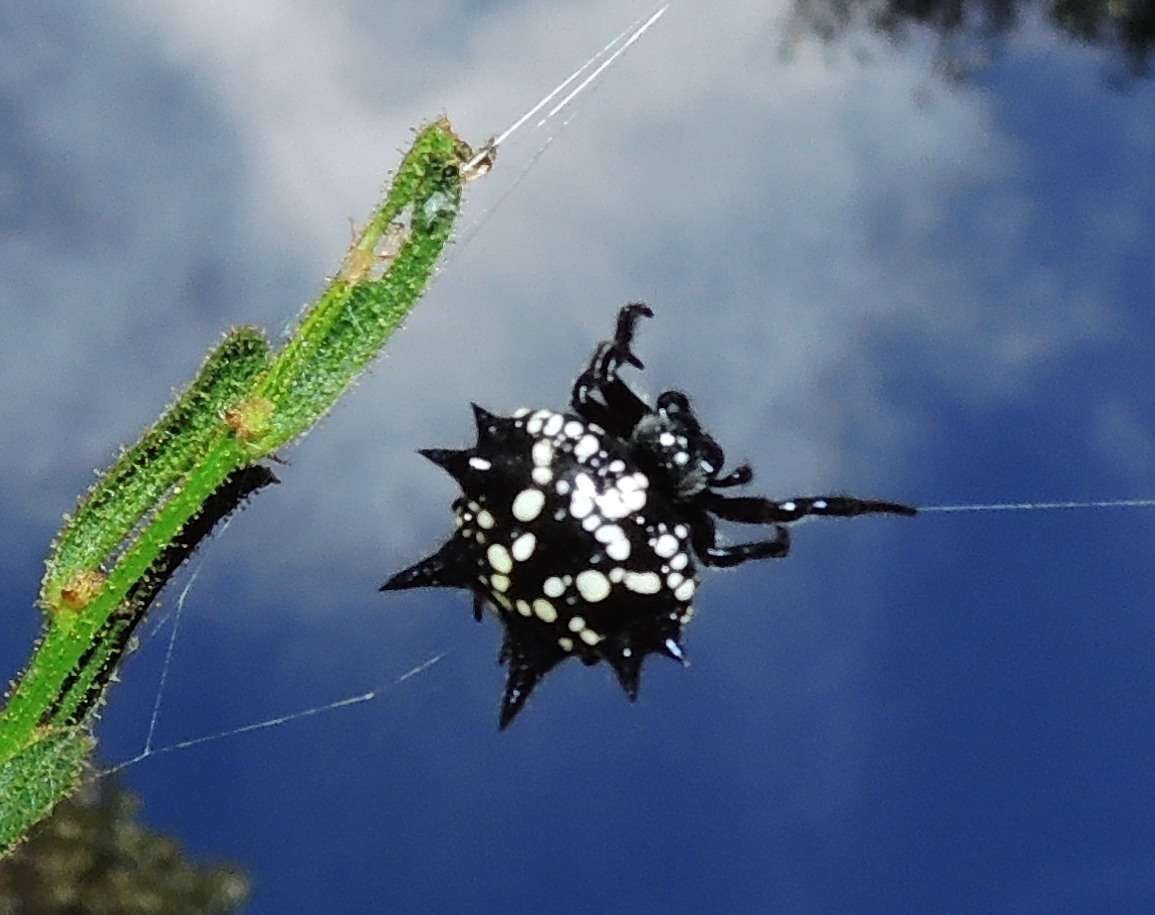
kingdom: Animalia
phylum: Arthropoda
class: Arachnida
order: Araneae
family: Araneidae
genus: Austracantha
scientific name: Austracantha minax
